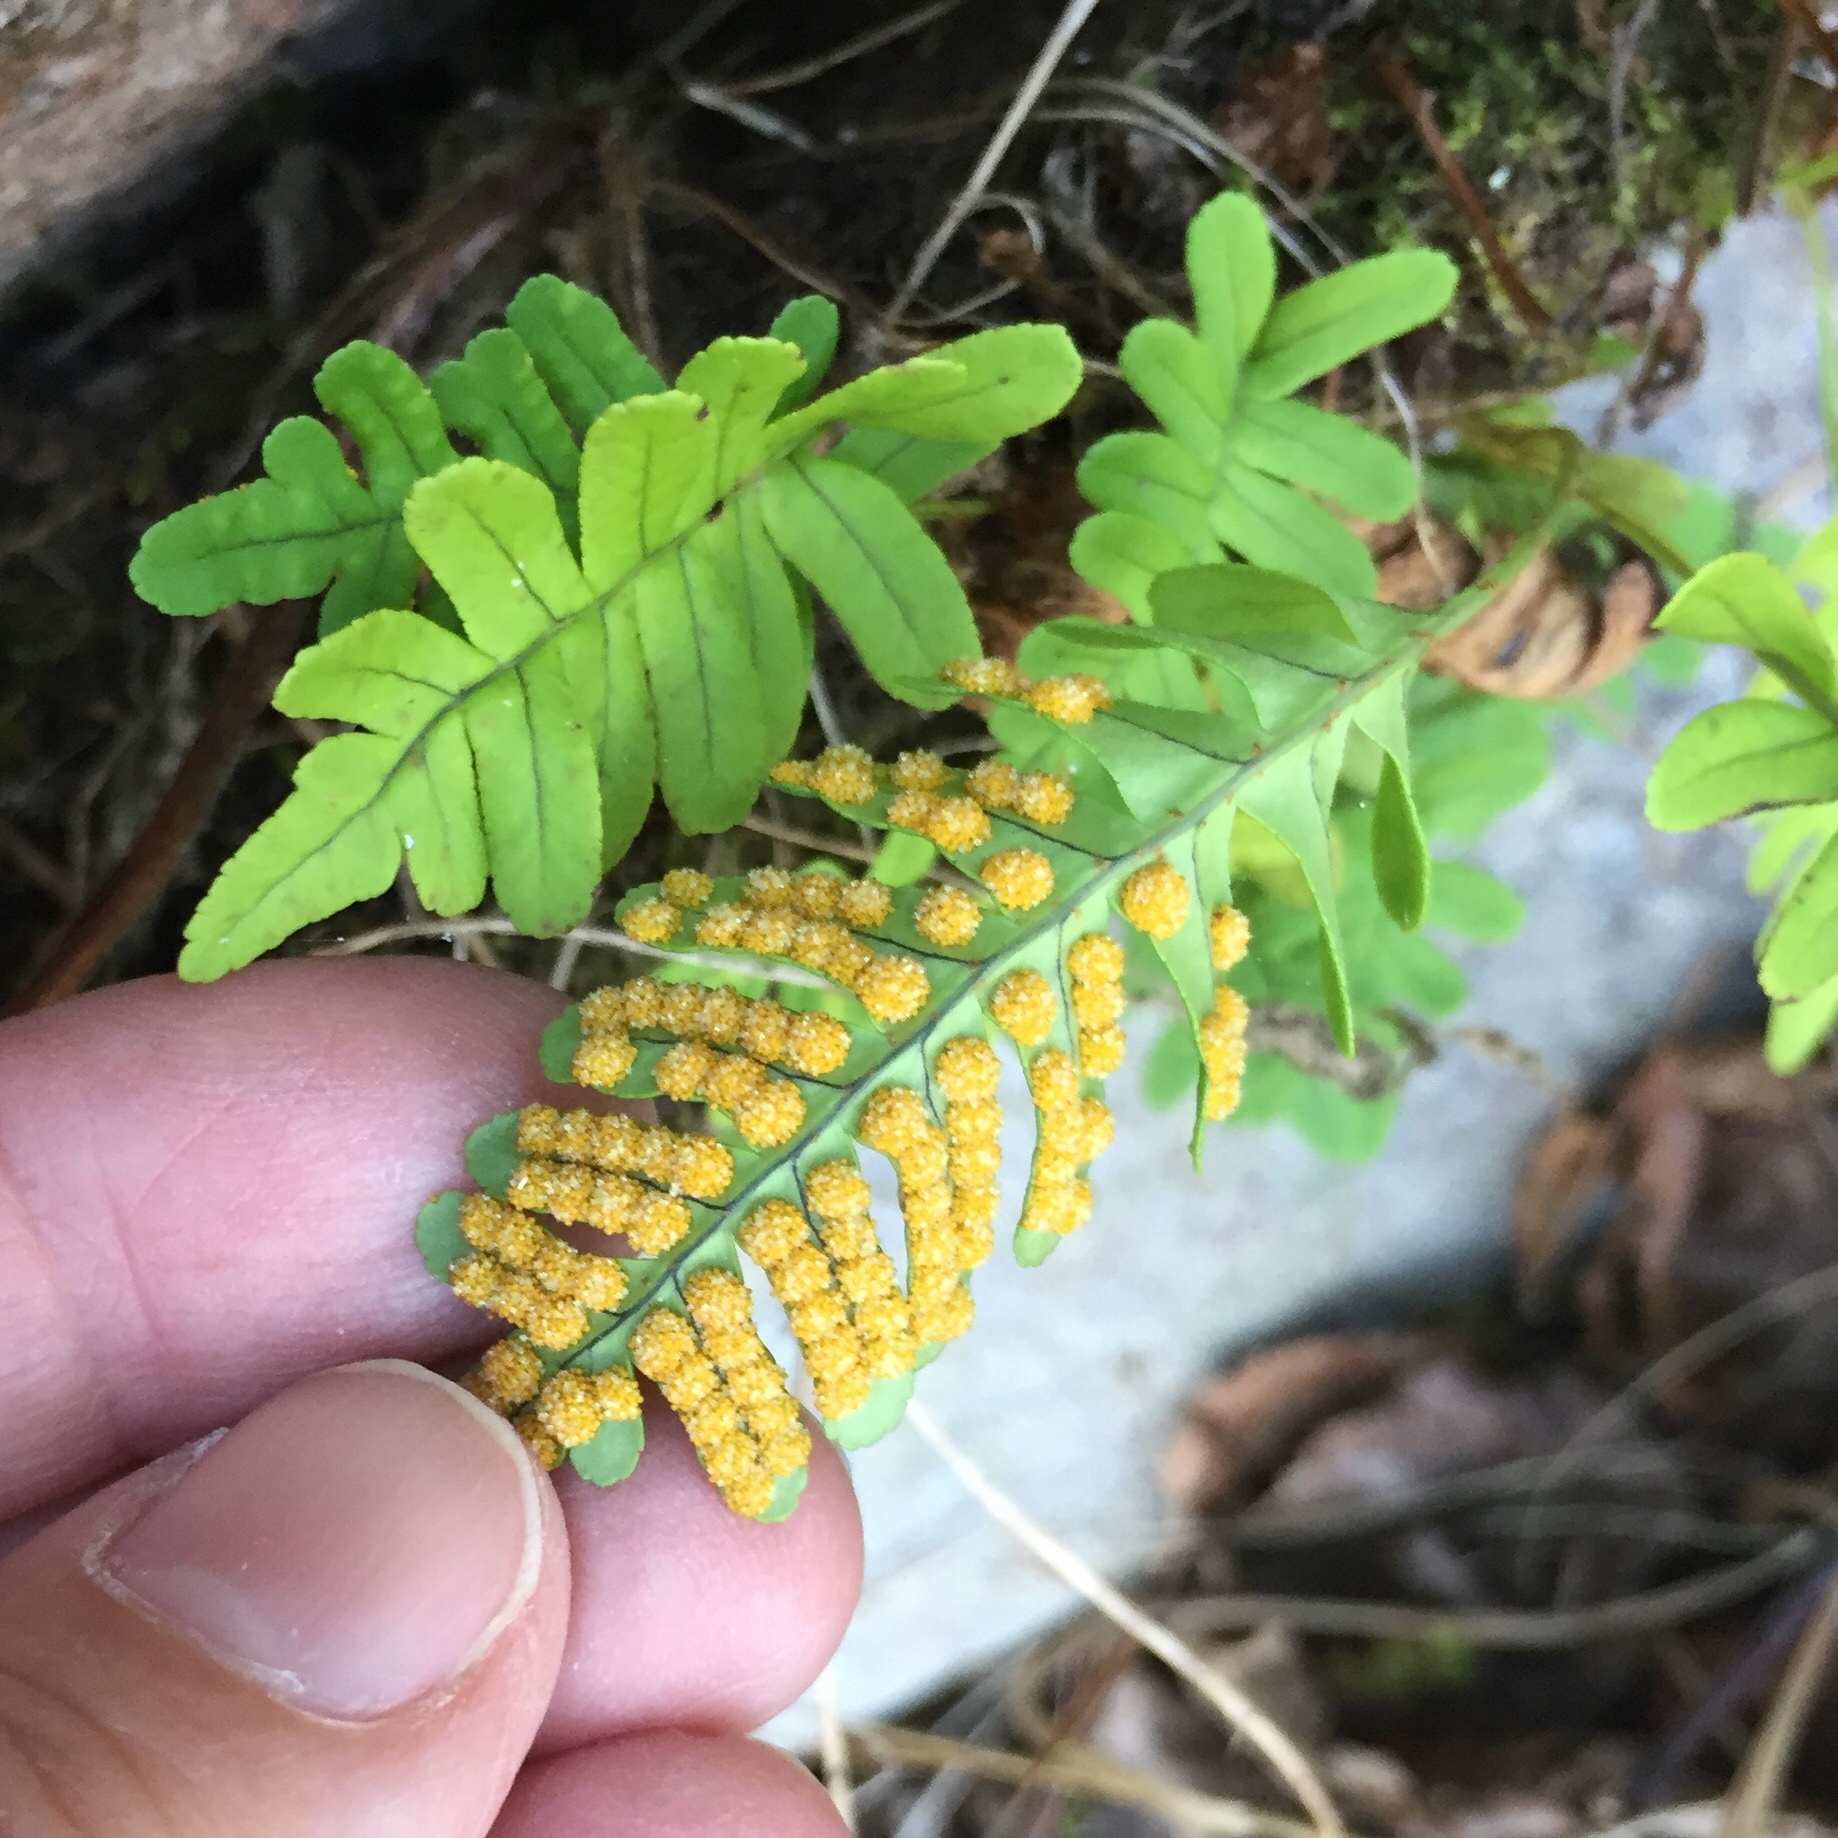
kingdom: Plantae
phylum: Tracheophyta
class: Polypodiopsida
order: Polypodiales
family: Polypodiaceae
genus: Polypodium
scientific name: Polypodium virginianum
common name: American wall fern
